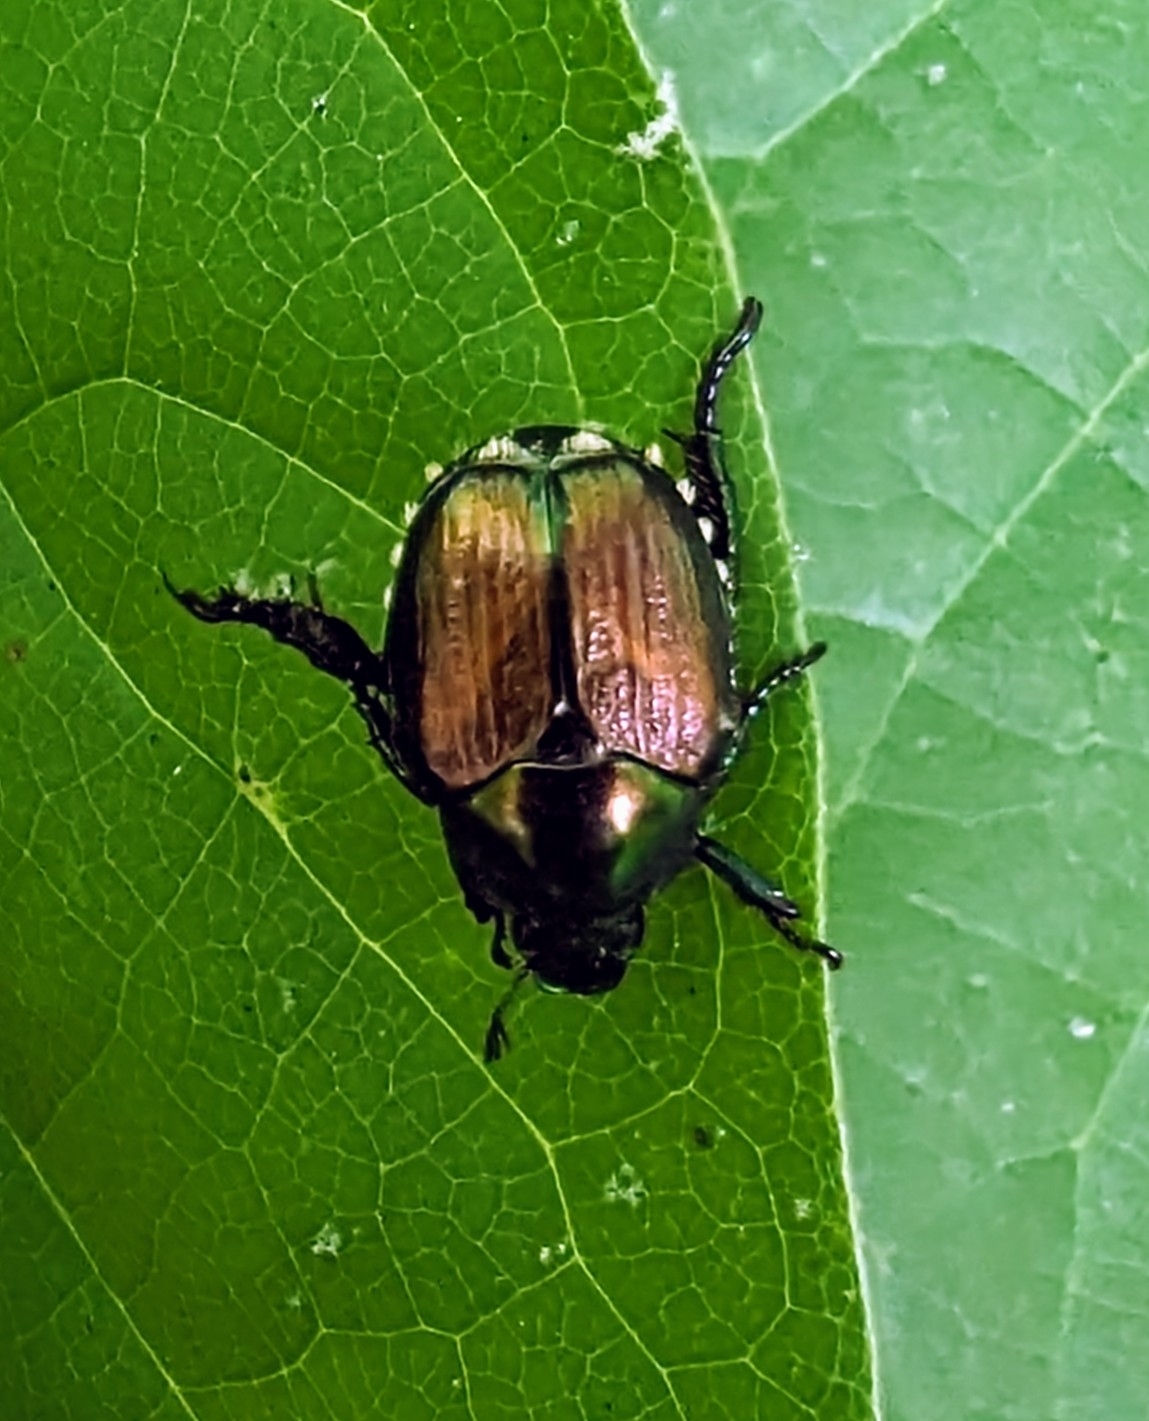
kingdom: Animalia
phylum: Arthropoda
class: Insecta
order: Coleoptera
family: Scarabaeidae
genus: Popillia
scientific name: Popillia japonica
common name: Japanese beetle
